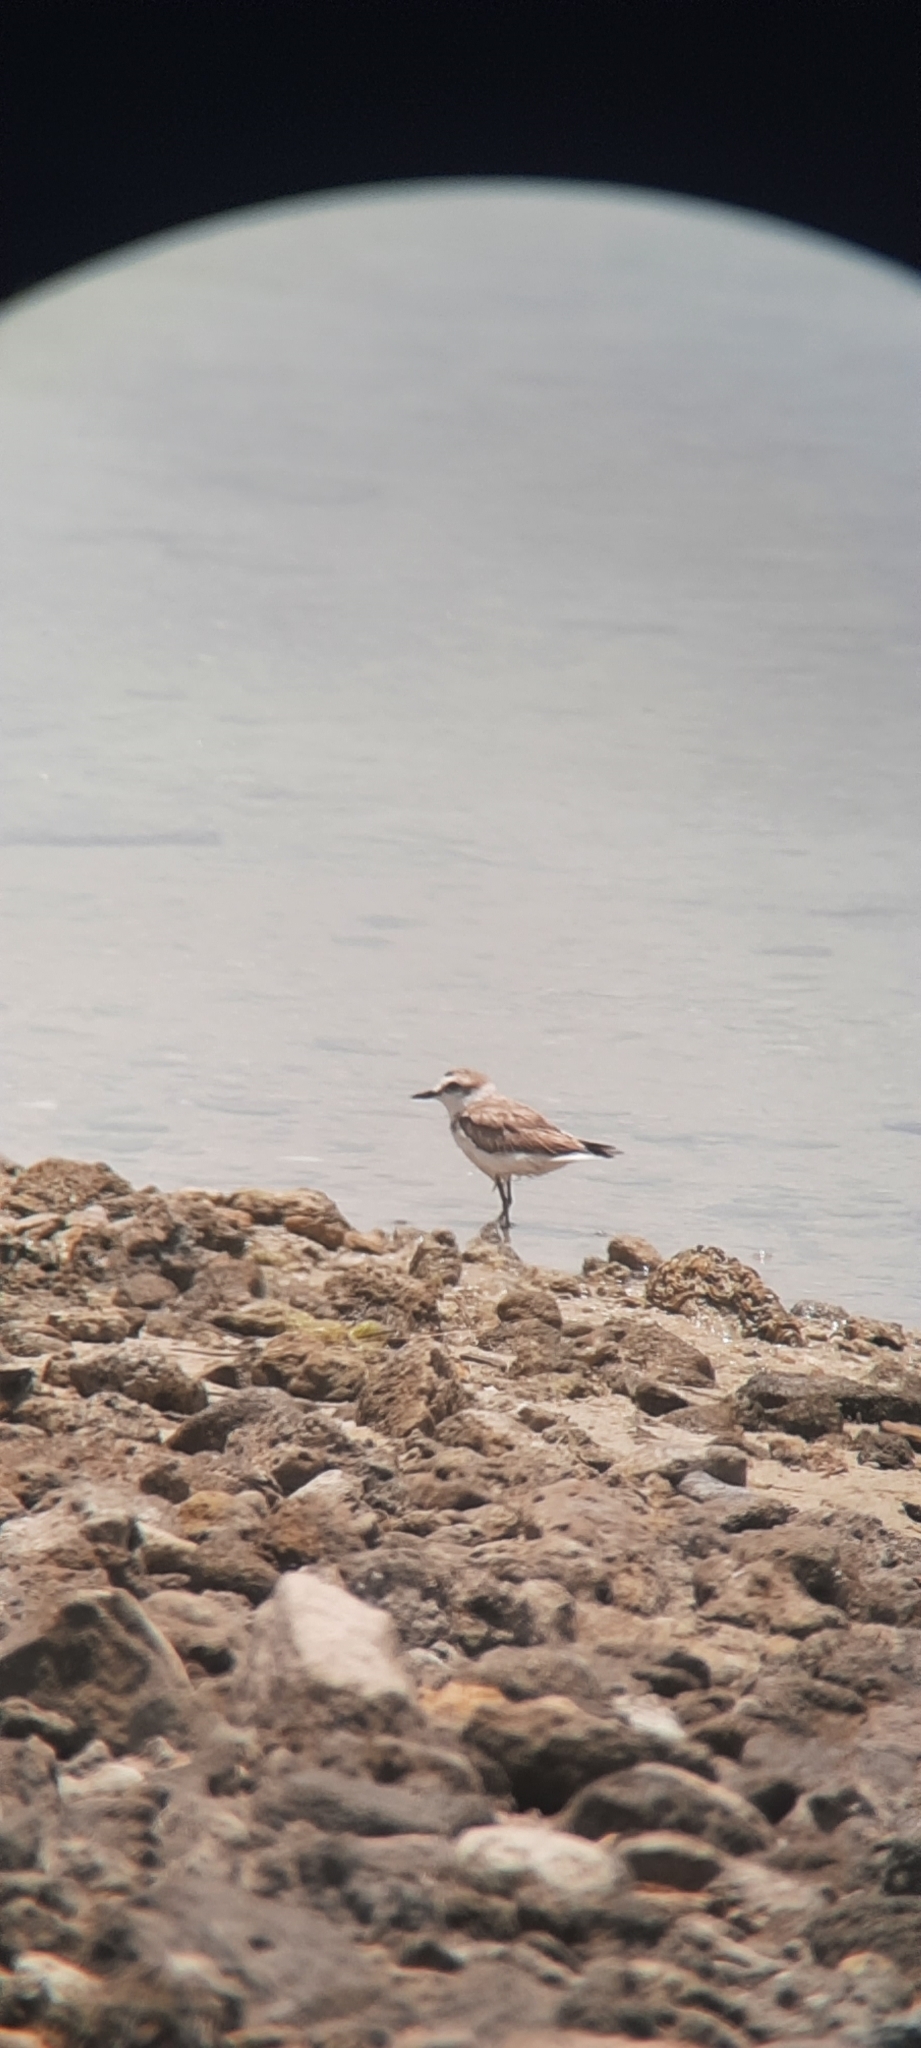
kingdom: Animalia
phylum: Chordata
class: Aves
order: Charadriiformes
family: Charadriidae
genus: Charadrius
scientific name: Charadrius alexandrinus
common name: Kentish plover
